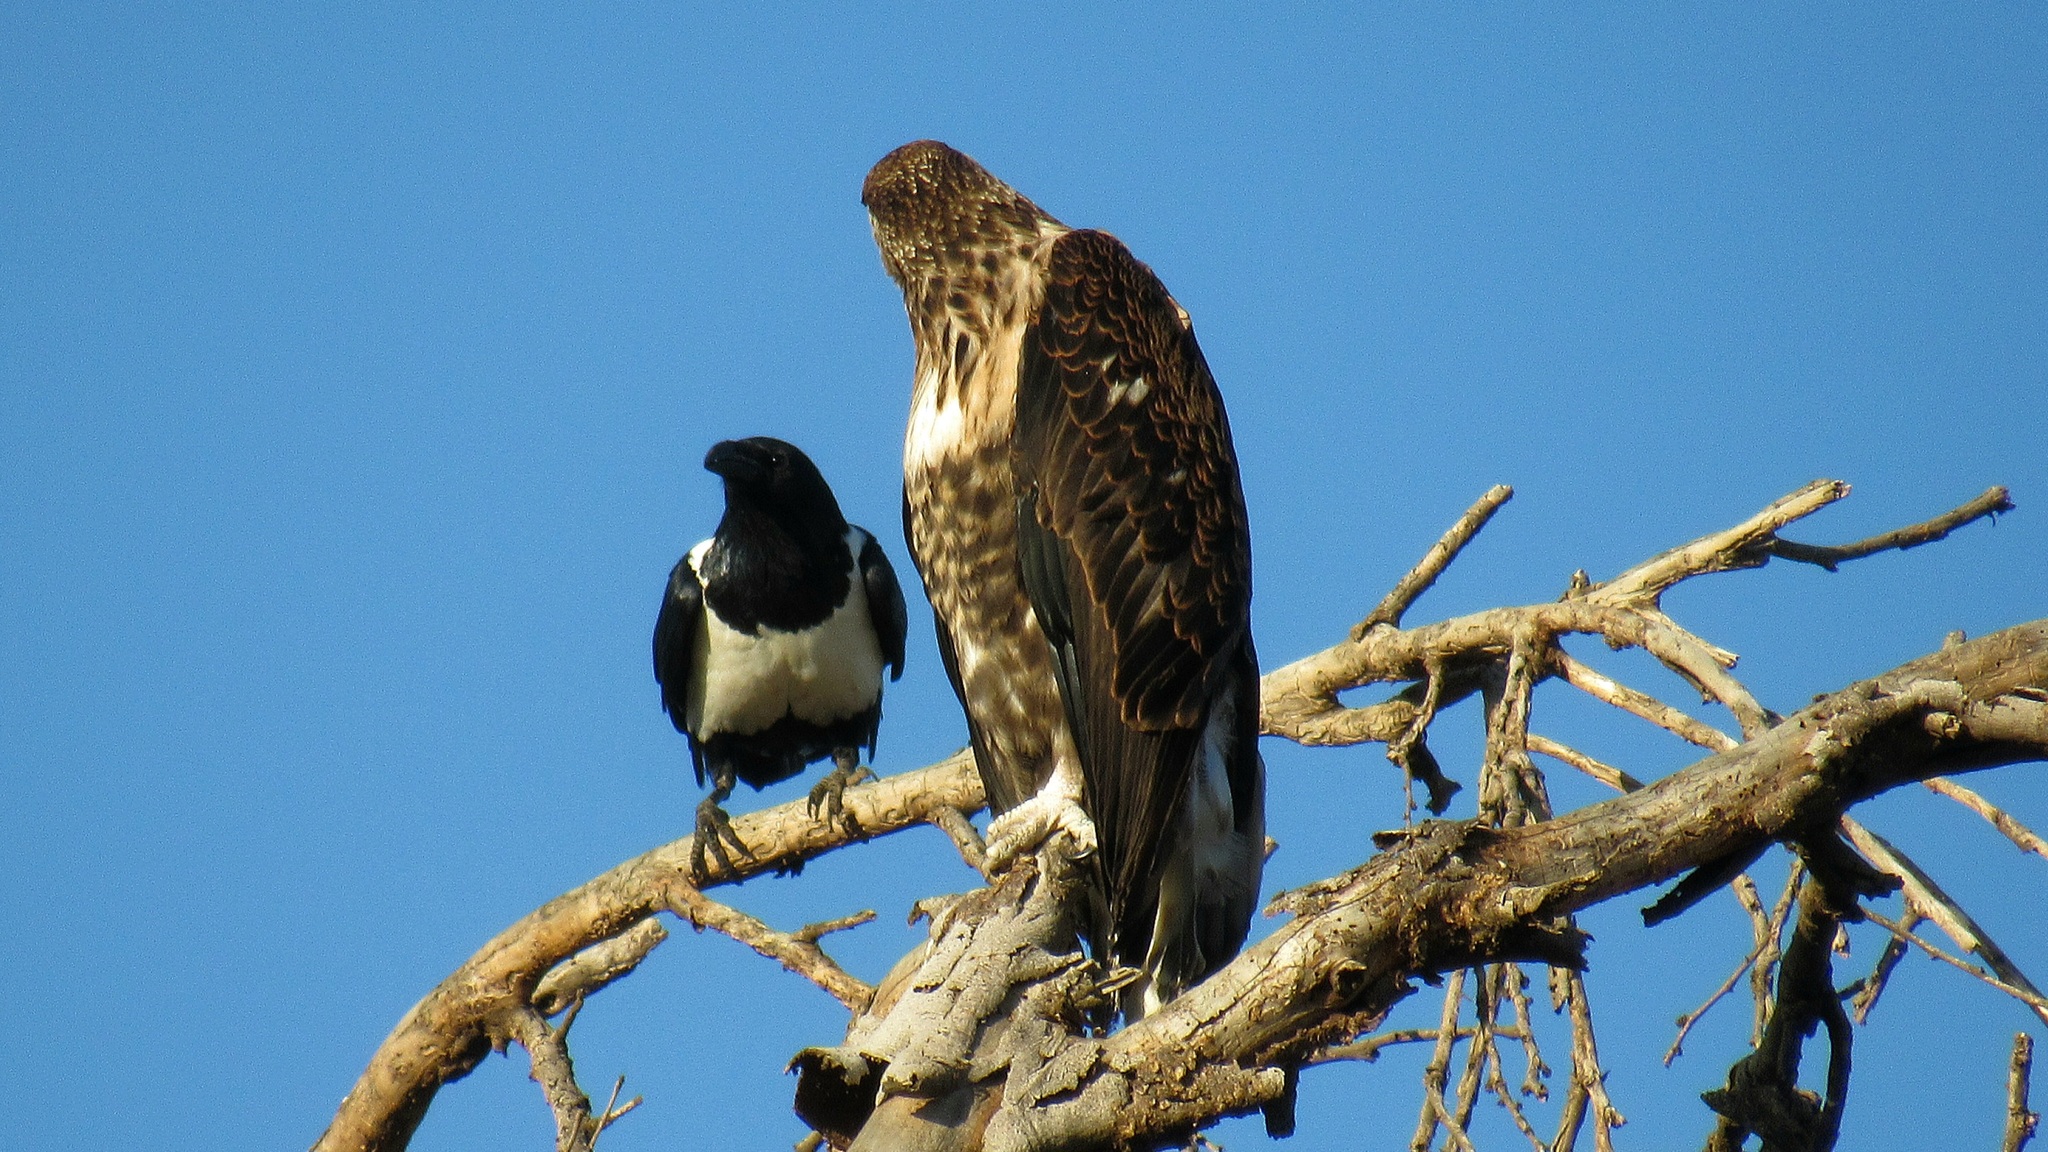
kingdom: Animalia
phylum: Chordata
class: Aves
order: Passeriformes
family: Corvidae
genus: Corvus
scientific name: Corvus albus
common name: Pied crow
